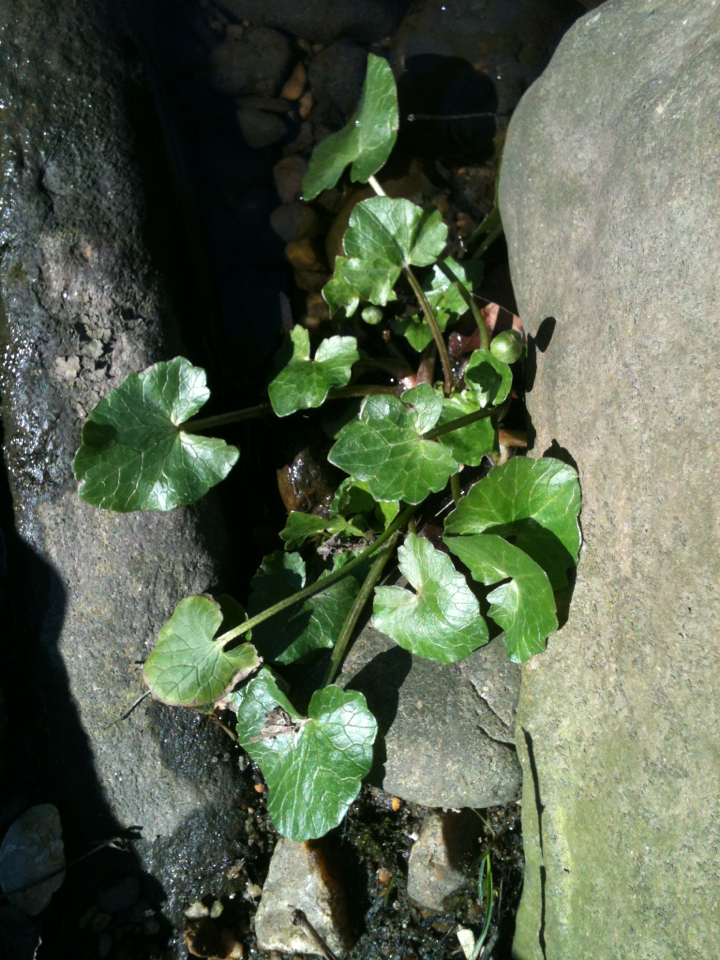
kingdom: Plantae
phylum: Tracheophyta
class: Magnoliopsida
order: Ranunculales
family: Ranunculaceae
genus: Ficaria
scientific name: Ficaria verna
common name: Lesser celandine
